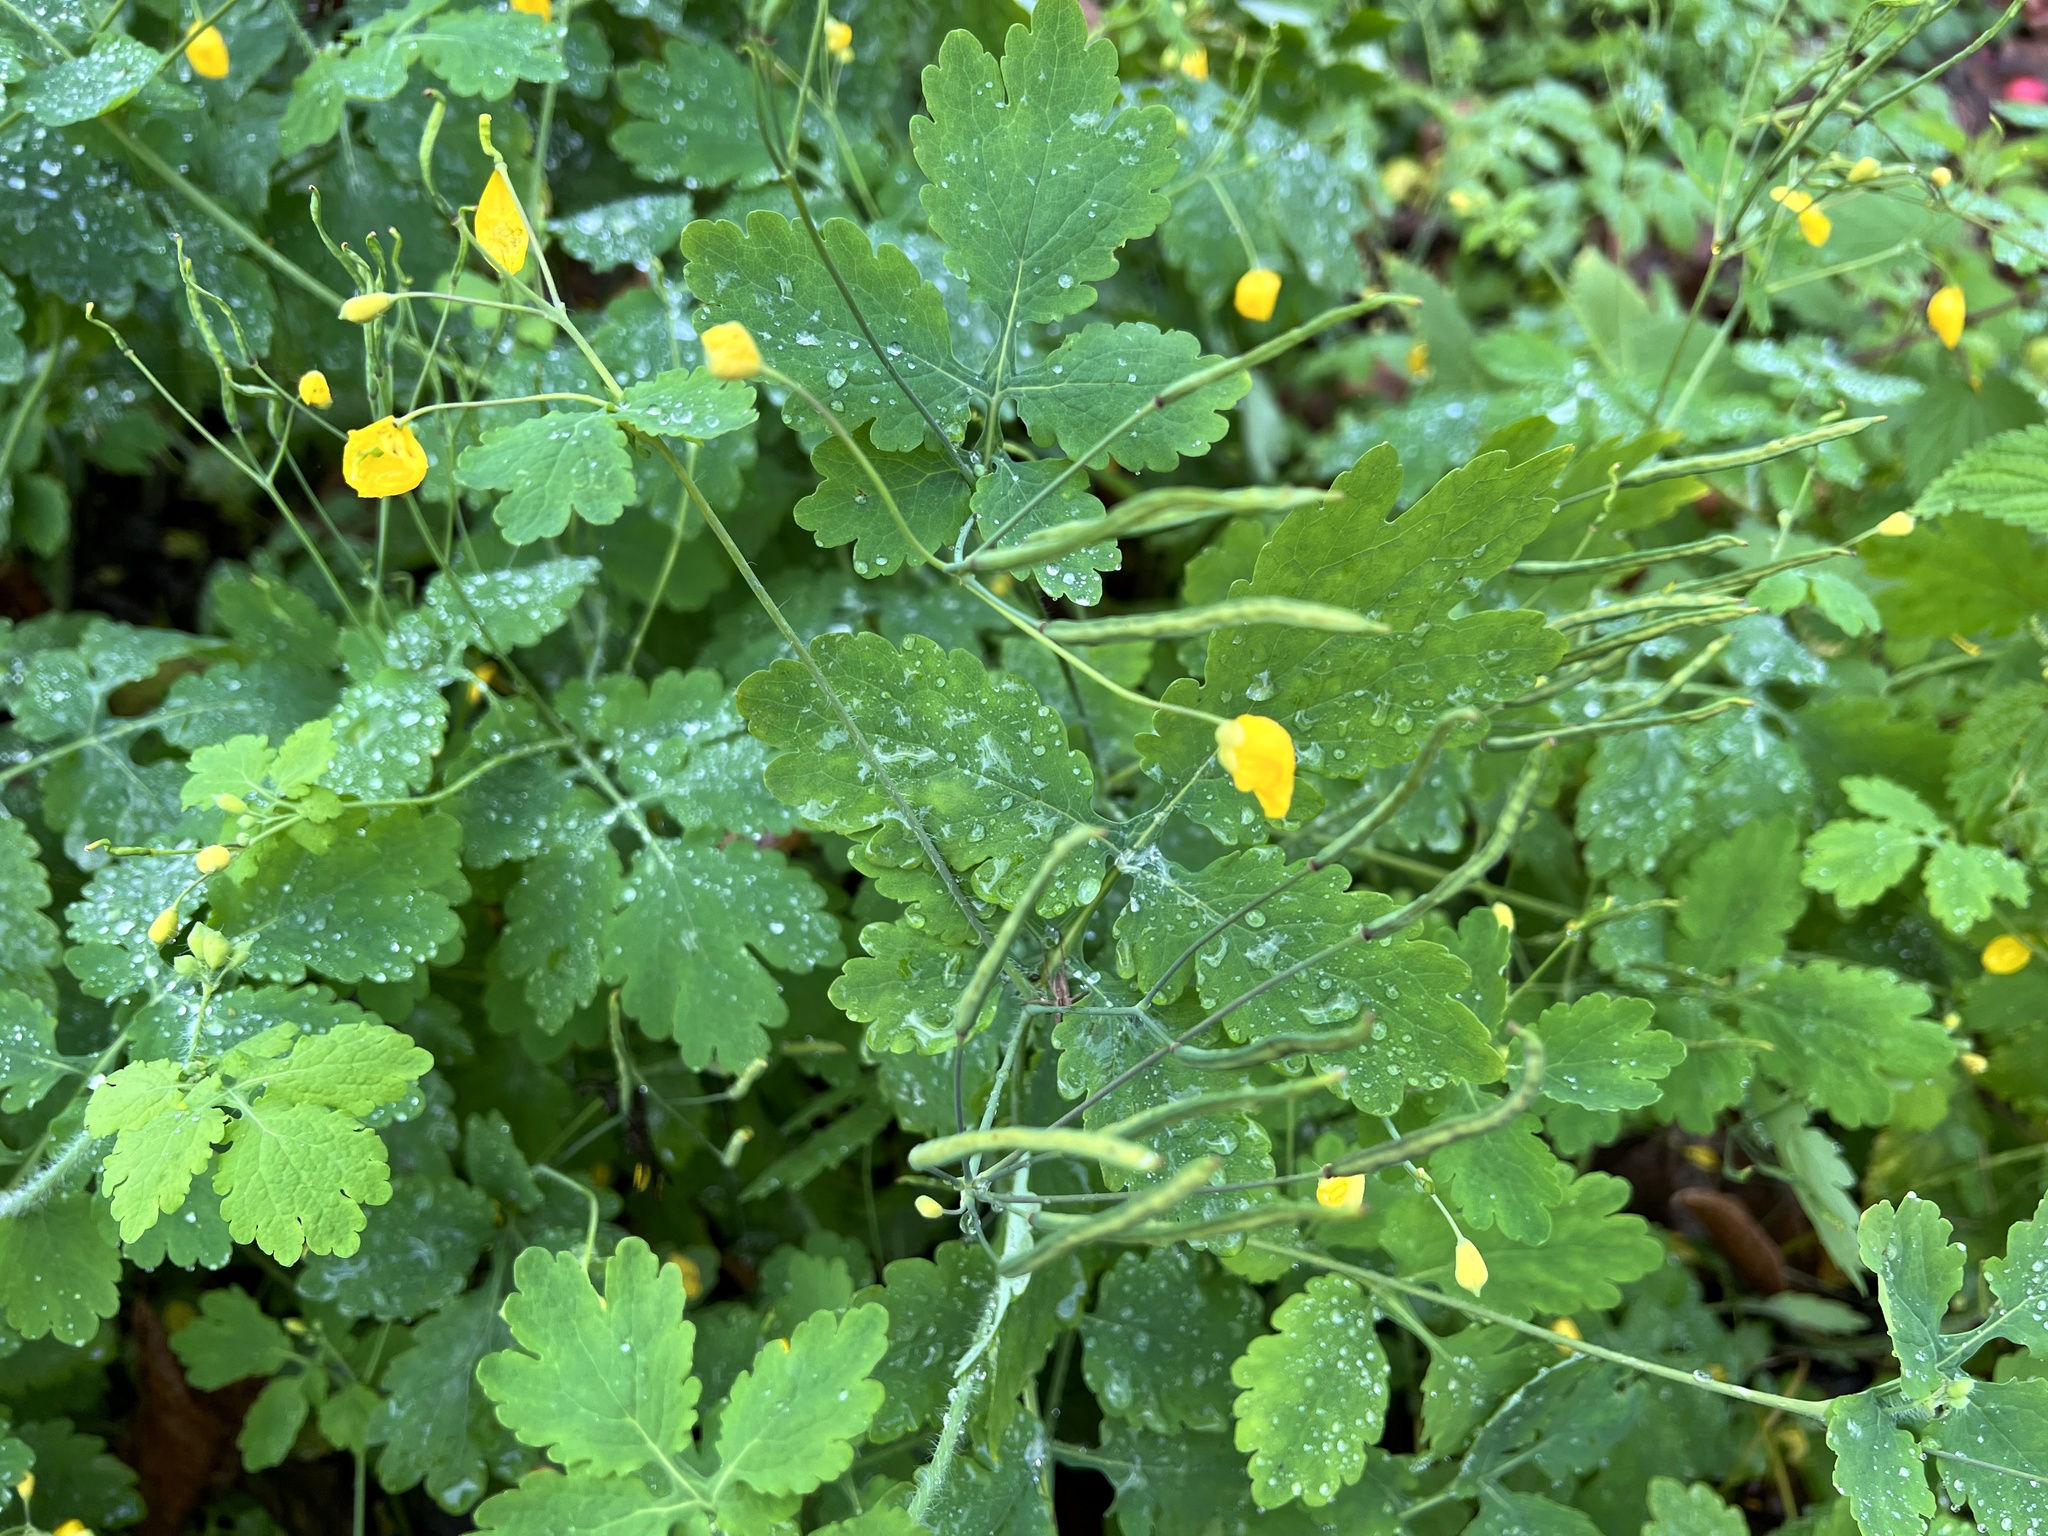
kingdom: Plantae
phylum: Tracheophyta
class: Magnoliopsida
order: Ranunculales
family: Papaveraceae
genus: Chelidonium
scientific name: Chelidonium majus
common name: Greater celandine
